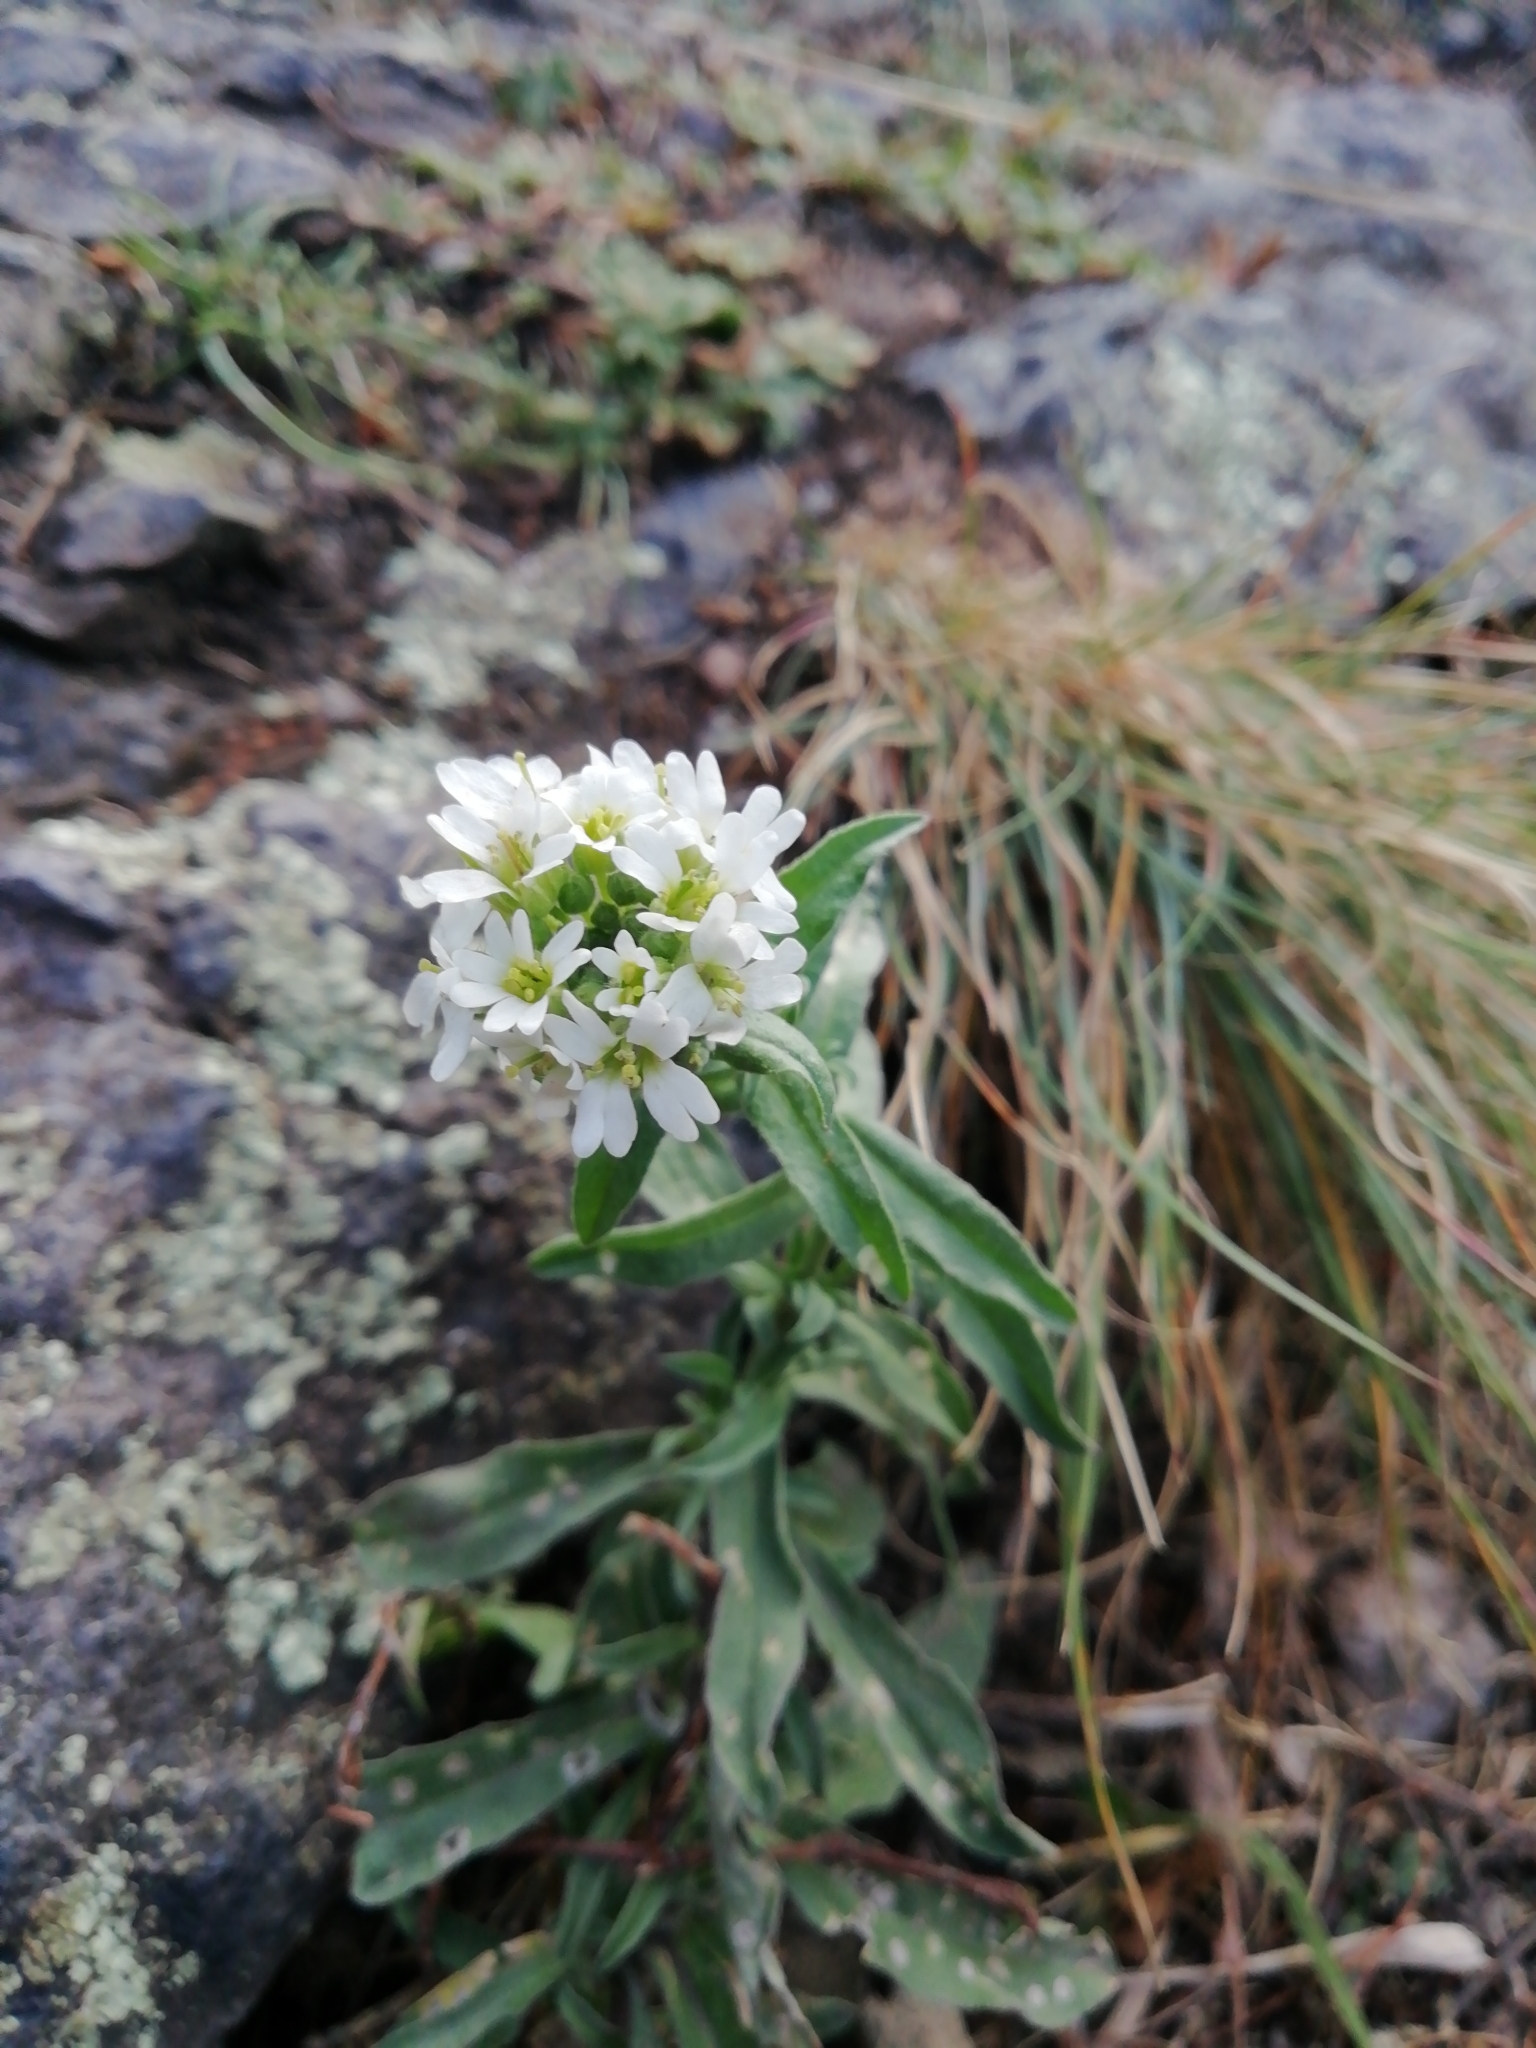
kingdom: Plantae
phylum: Tracheophyta
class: Magnoliopsida
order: Brassicales
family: Brassicaceae
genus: Berteroa
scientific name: Berteroa incana
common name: Hoary alison
